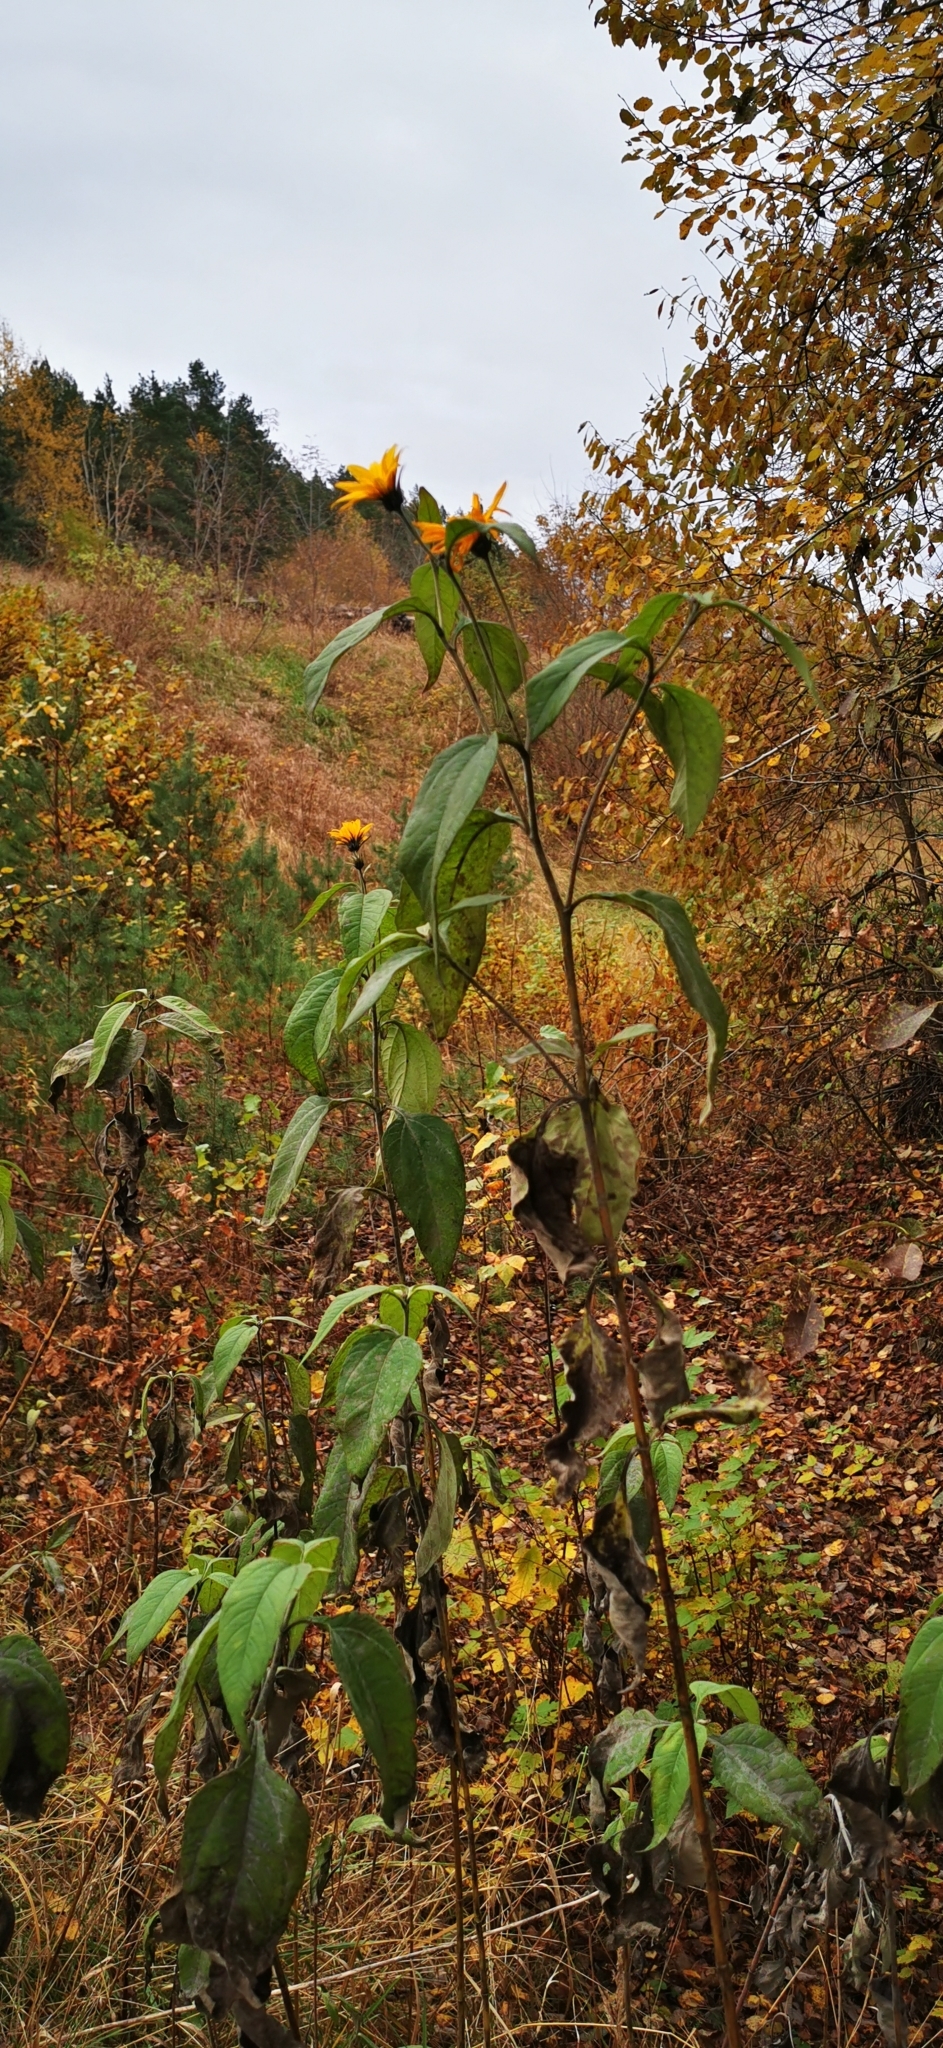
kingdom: Plantae
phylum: Tracheophyta
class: Magnoliopsida
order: Asterales
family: Asteraceae
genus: Helianthus
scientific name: Helianthus tuberosus
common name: Jerusalem artichoke
